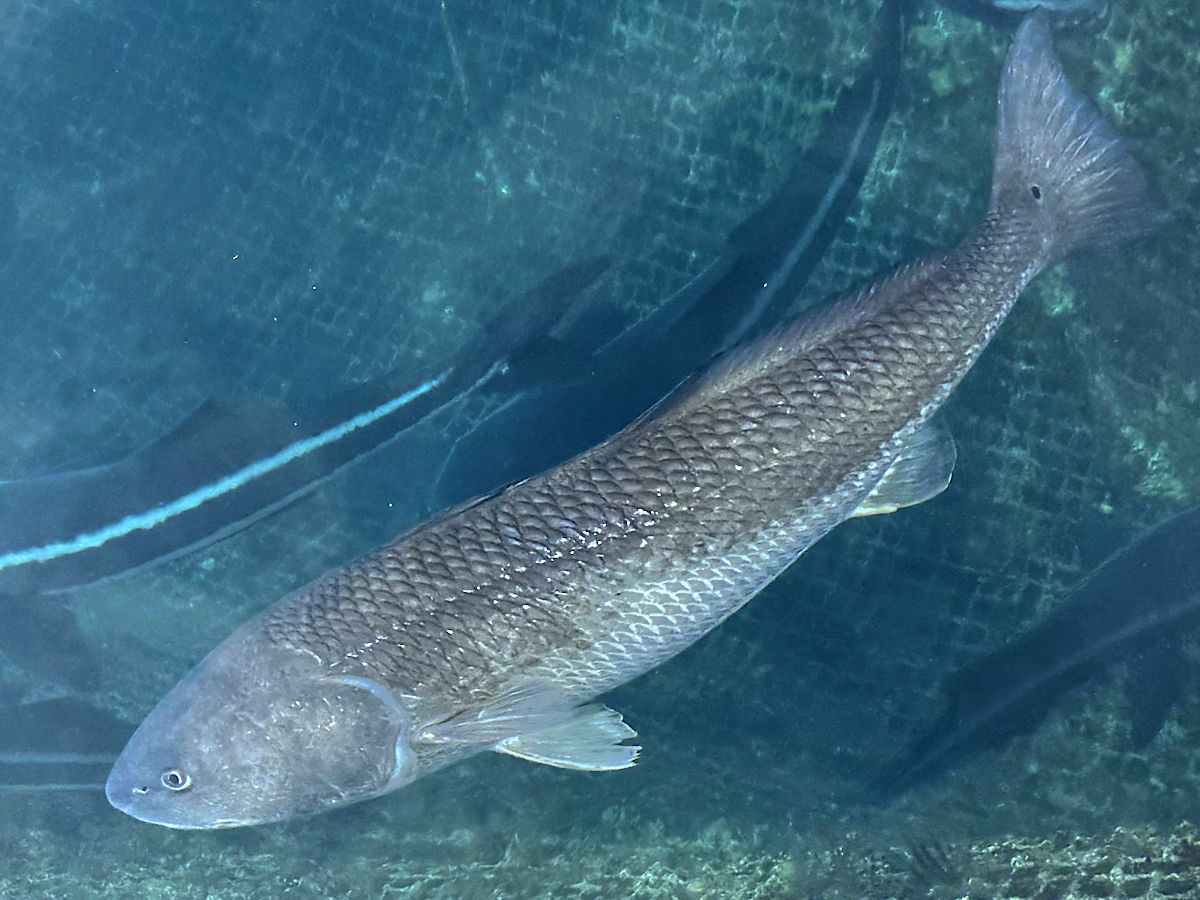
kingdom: Animalia
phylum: Chordata
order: Perciformes
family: Sciaenidae
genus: Sciaenops
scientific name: Sciaenops ocellatus
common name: Red drum
